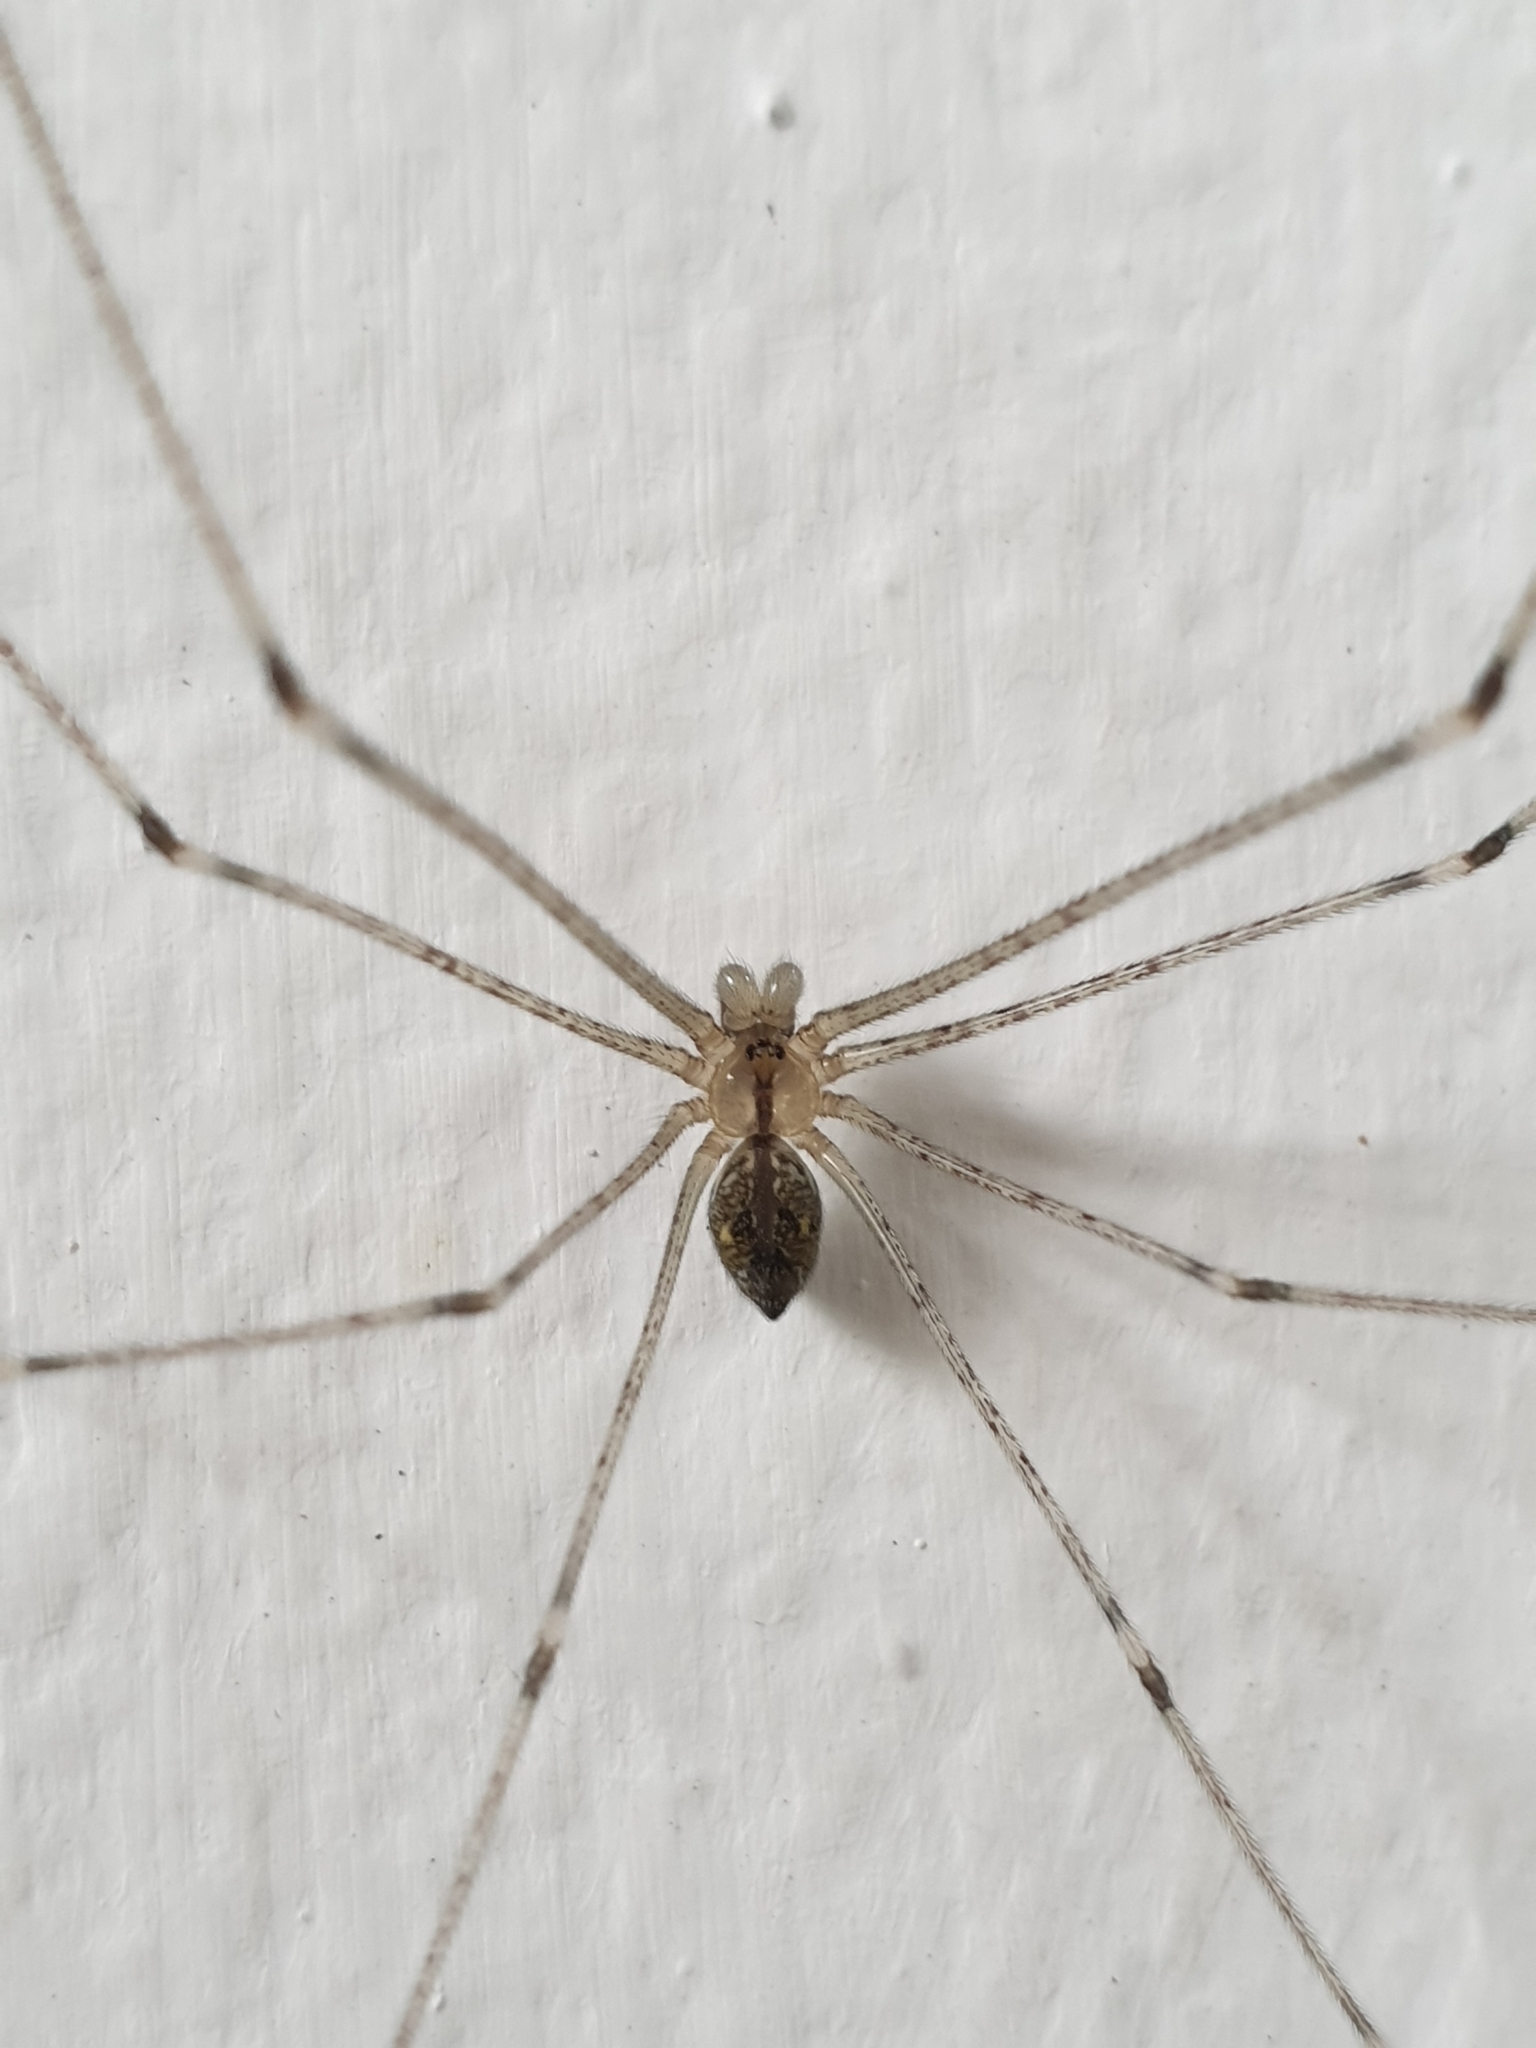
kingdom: Animalia
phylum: Arthropoda
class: Arachnida
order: Araneae
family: Pholcidae
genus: Crossopriza
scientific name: Crossopriza lyoni
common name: Cellar spiders
